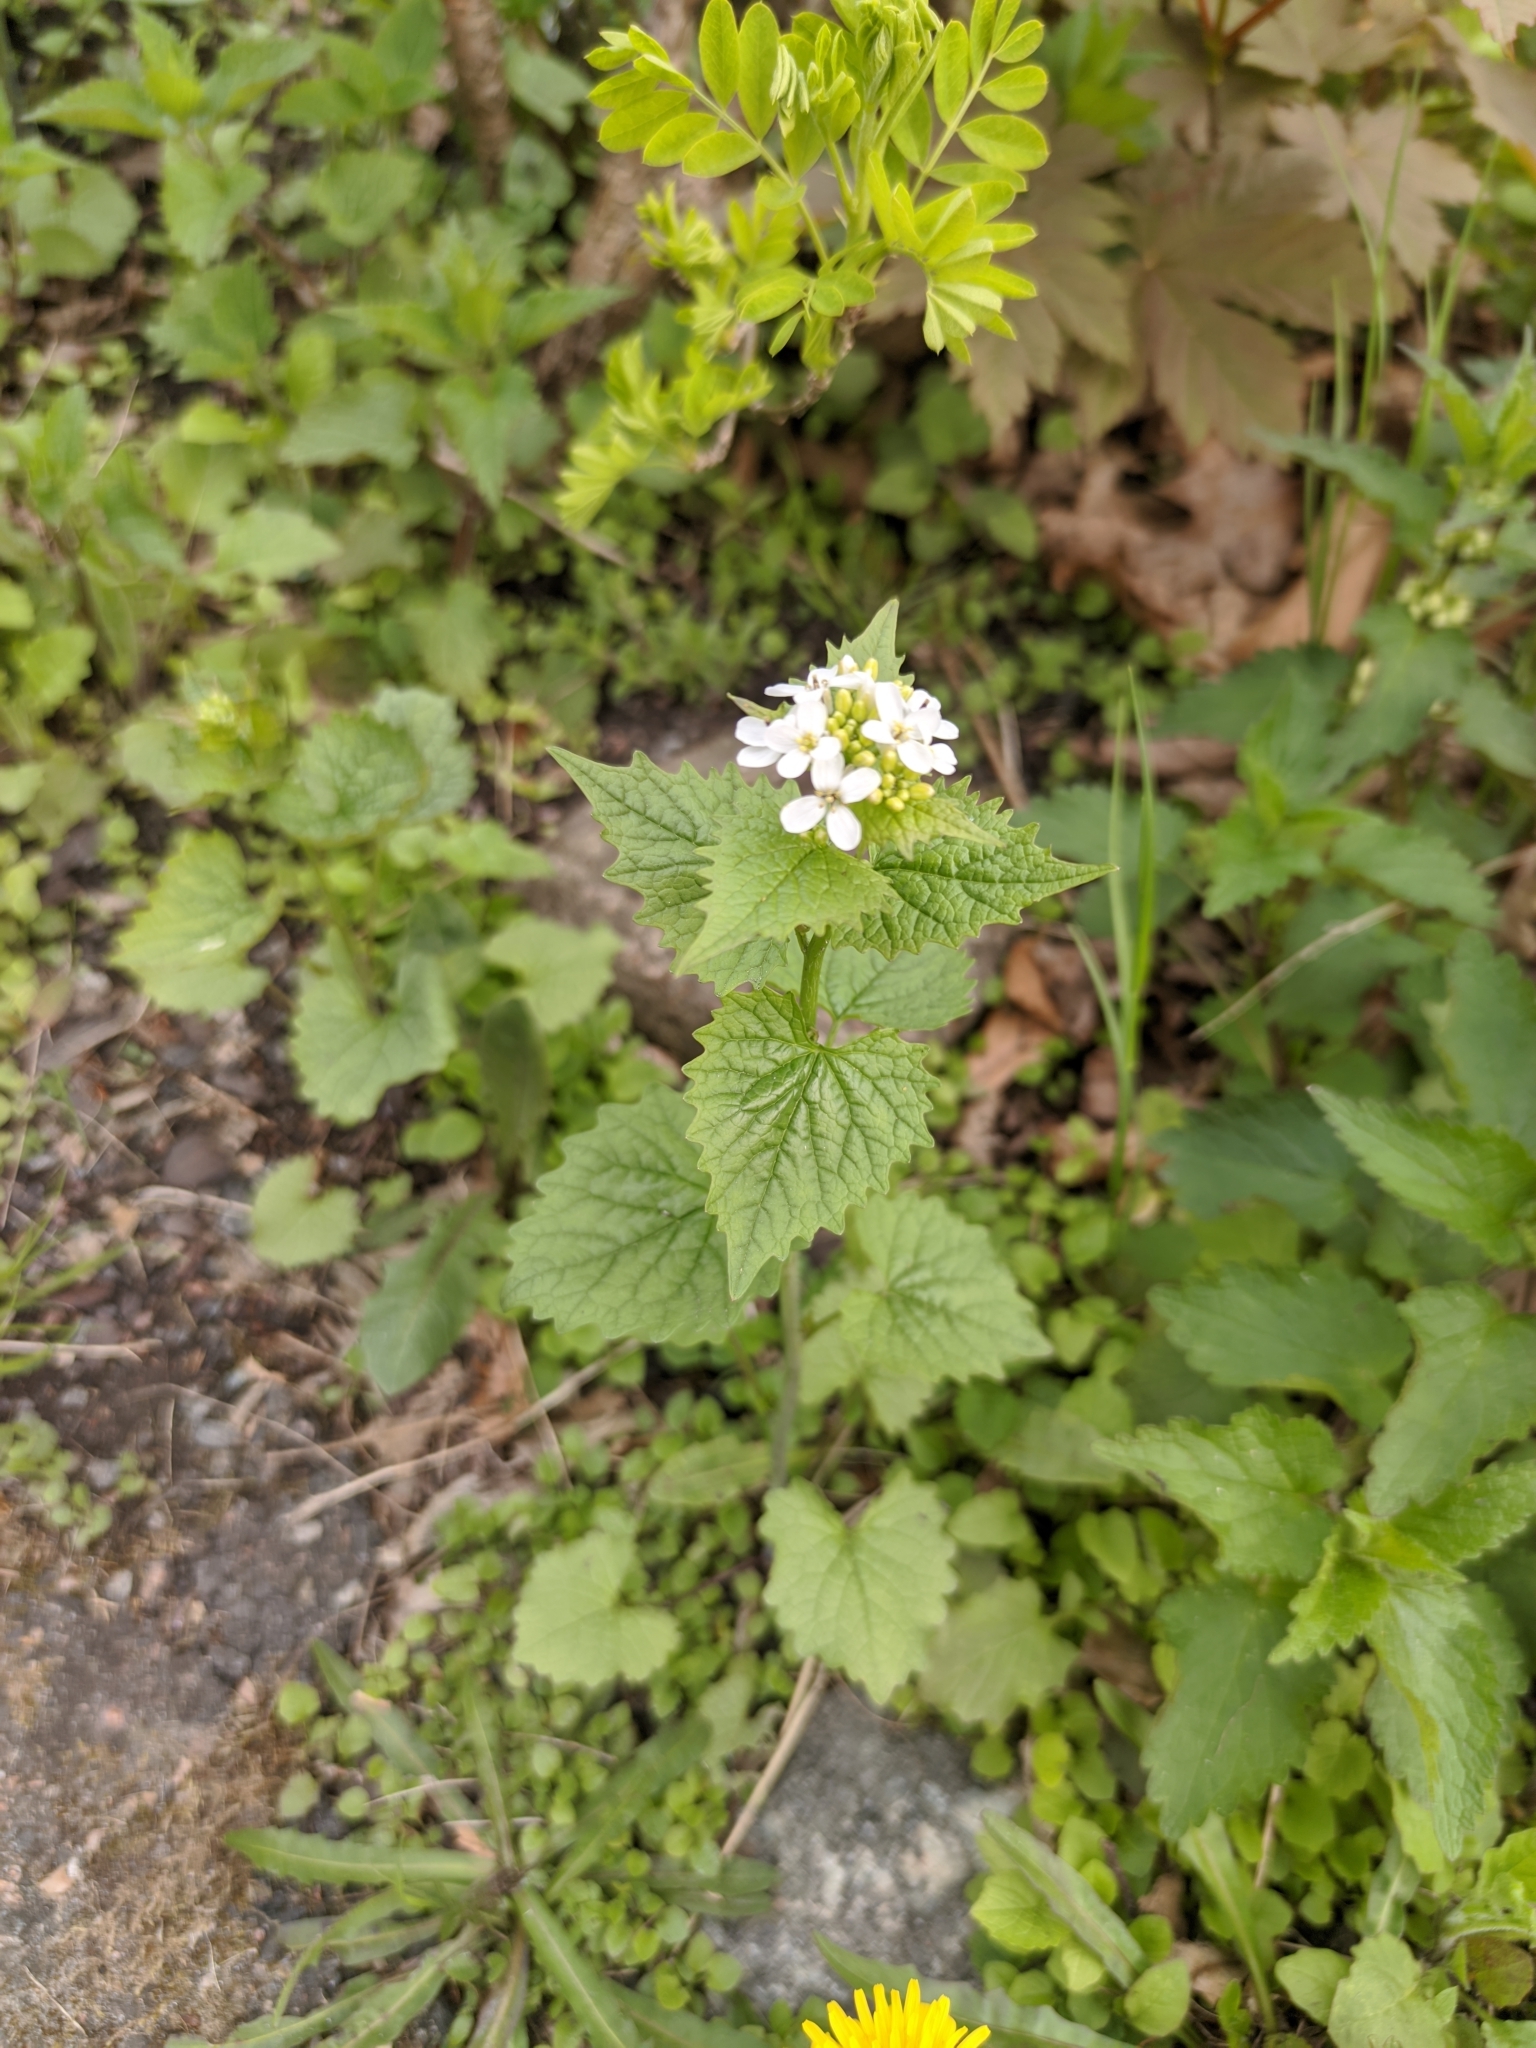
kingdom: Plantae
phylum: Tracheophyta
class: Magnoliopsida
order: Brassicales
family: Brassicaceae
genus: Alliaria
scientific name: Alliaria petiolata
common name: Garlic mustard
